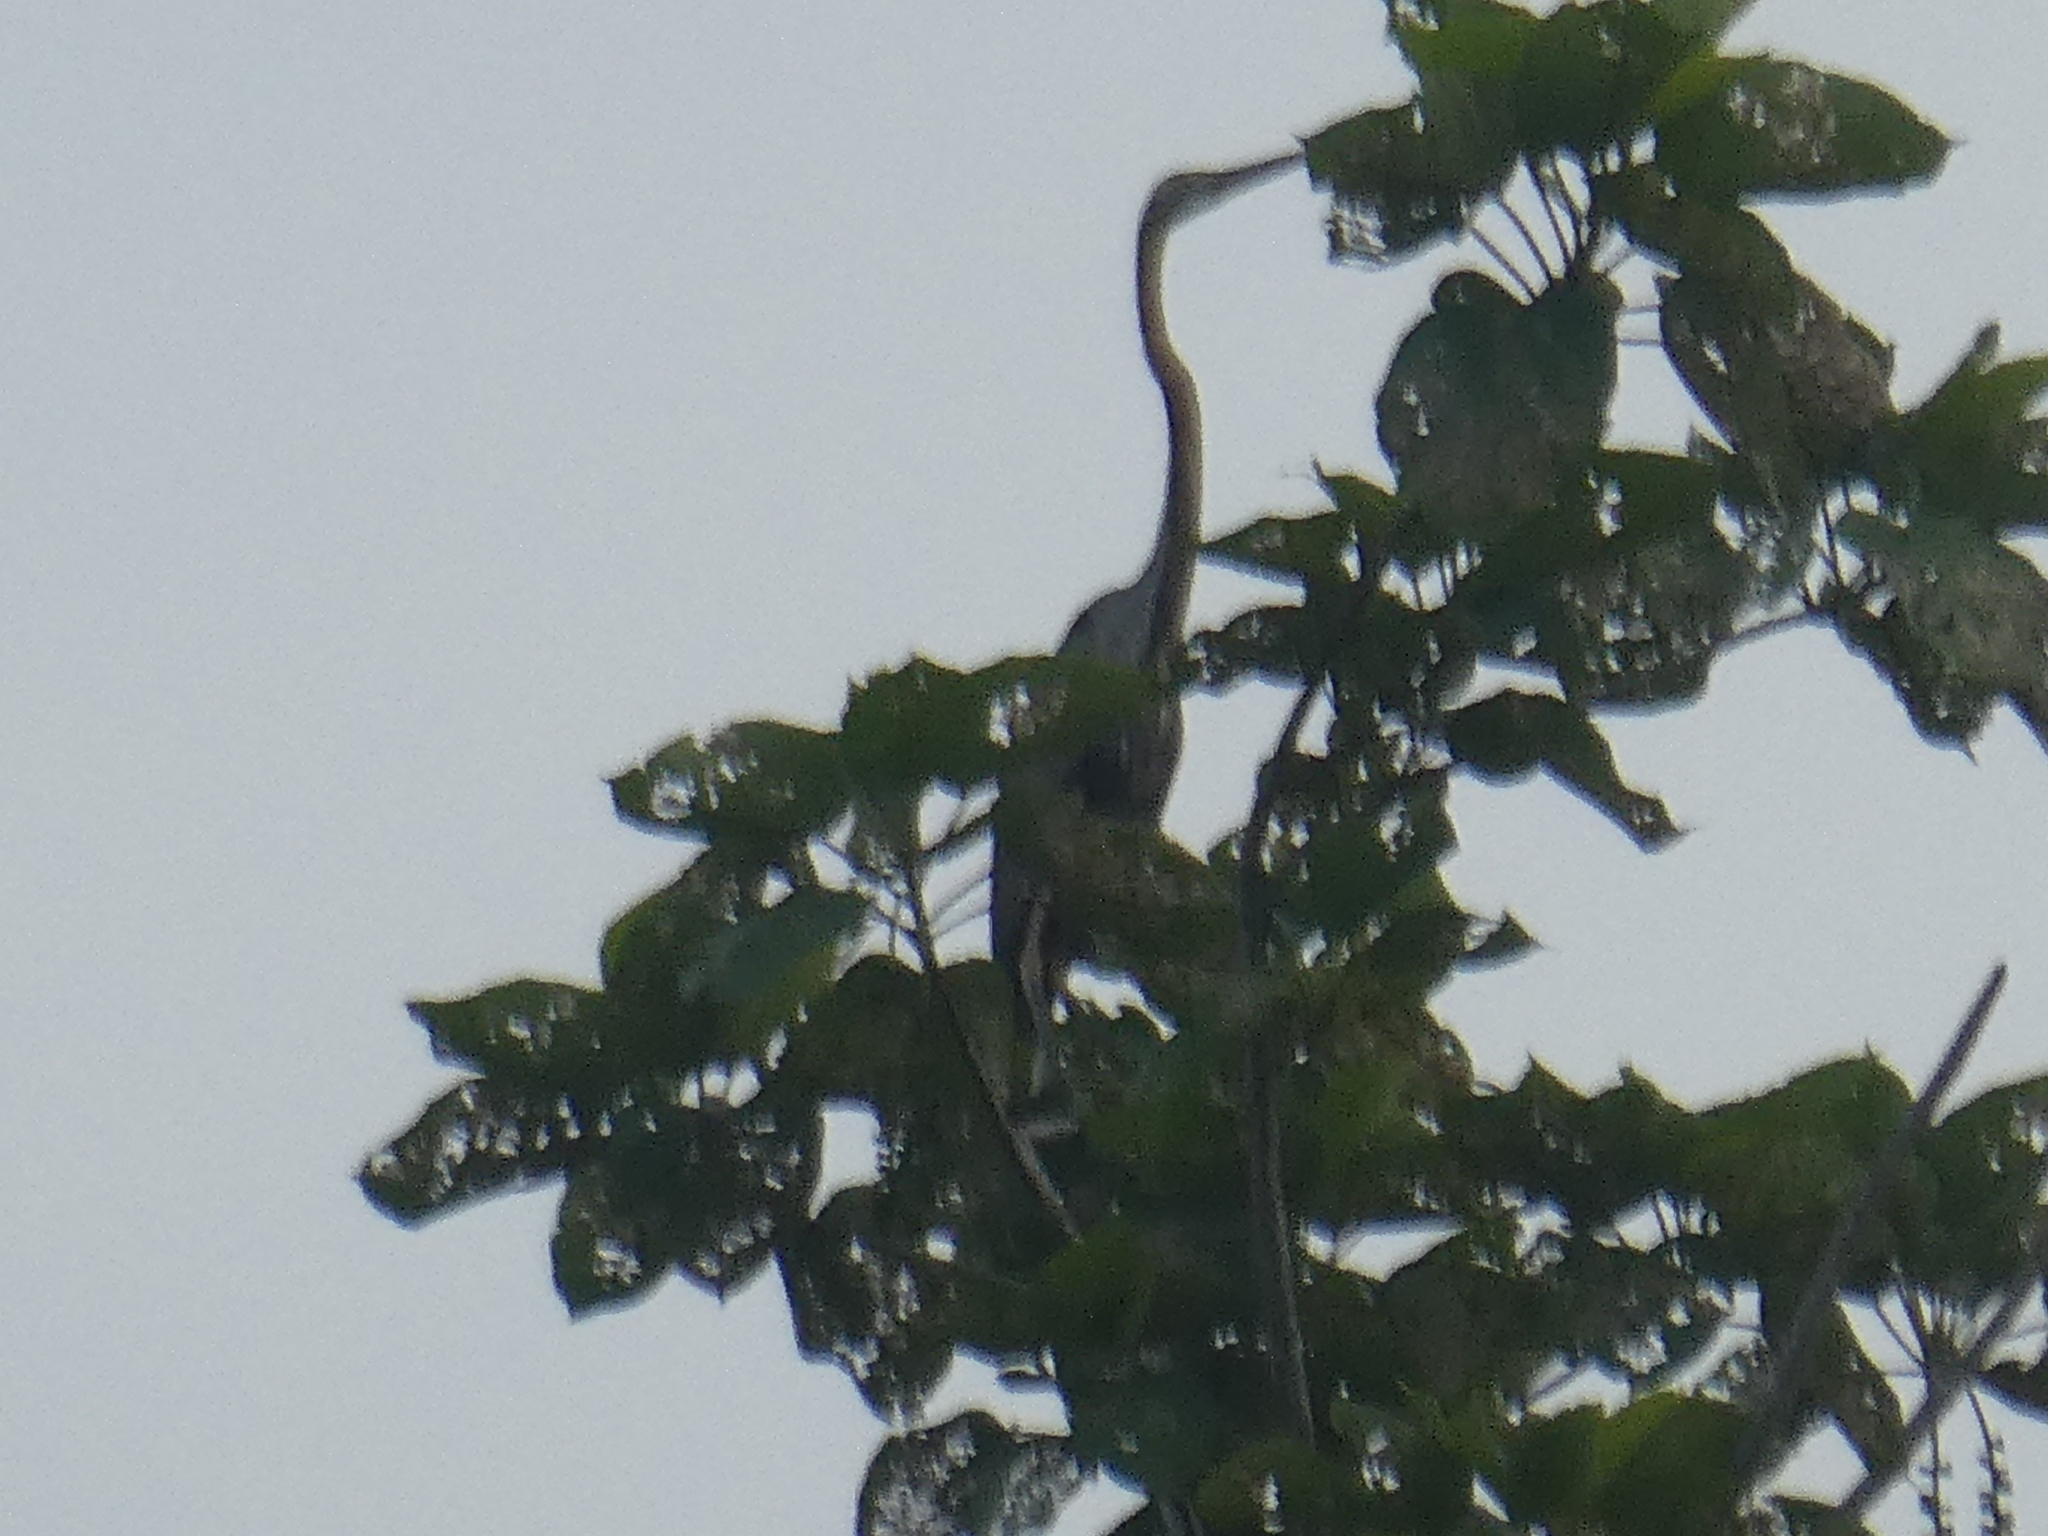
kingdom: Animalia
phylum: Chordata
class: Aves
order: Pelecaniformes
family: Ardeidae
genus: Ardea
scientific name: Ardea purpurea
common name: Purple heron
